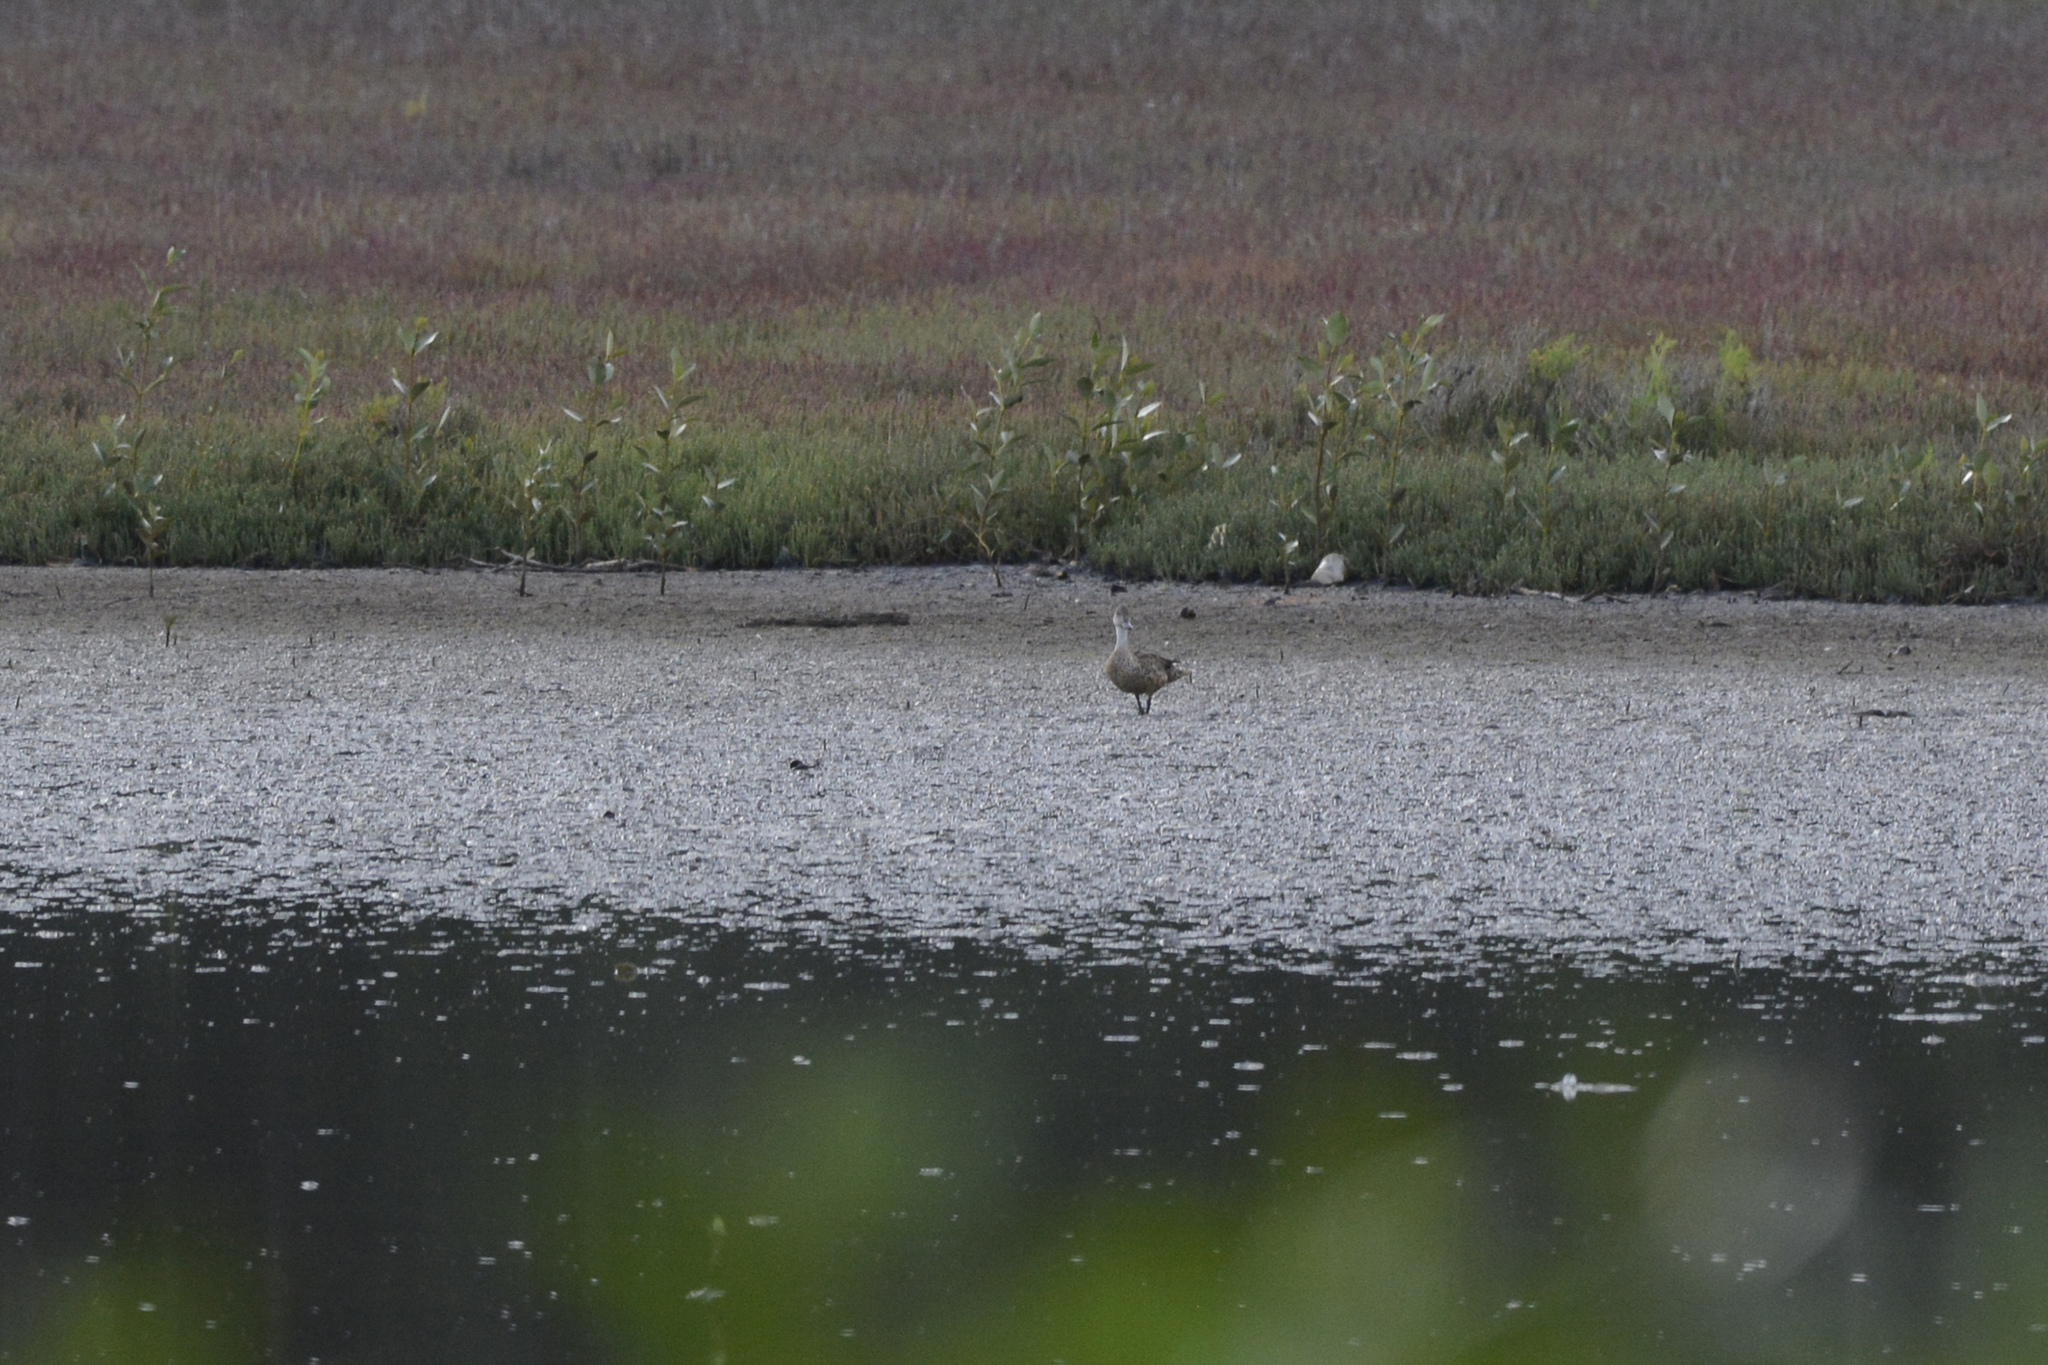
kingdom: Animalia
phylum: Chordata
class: Aves
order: Anseriformes
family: Anatidae
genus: Anas
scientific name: Anas gracilis
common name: Grey teal
